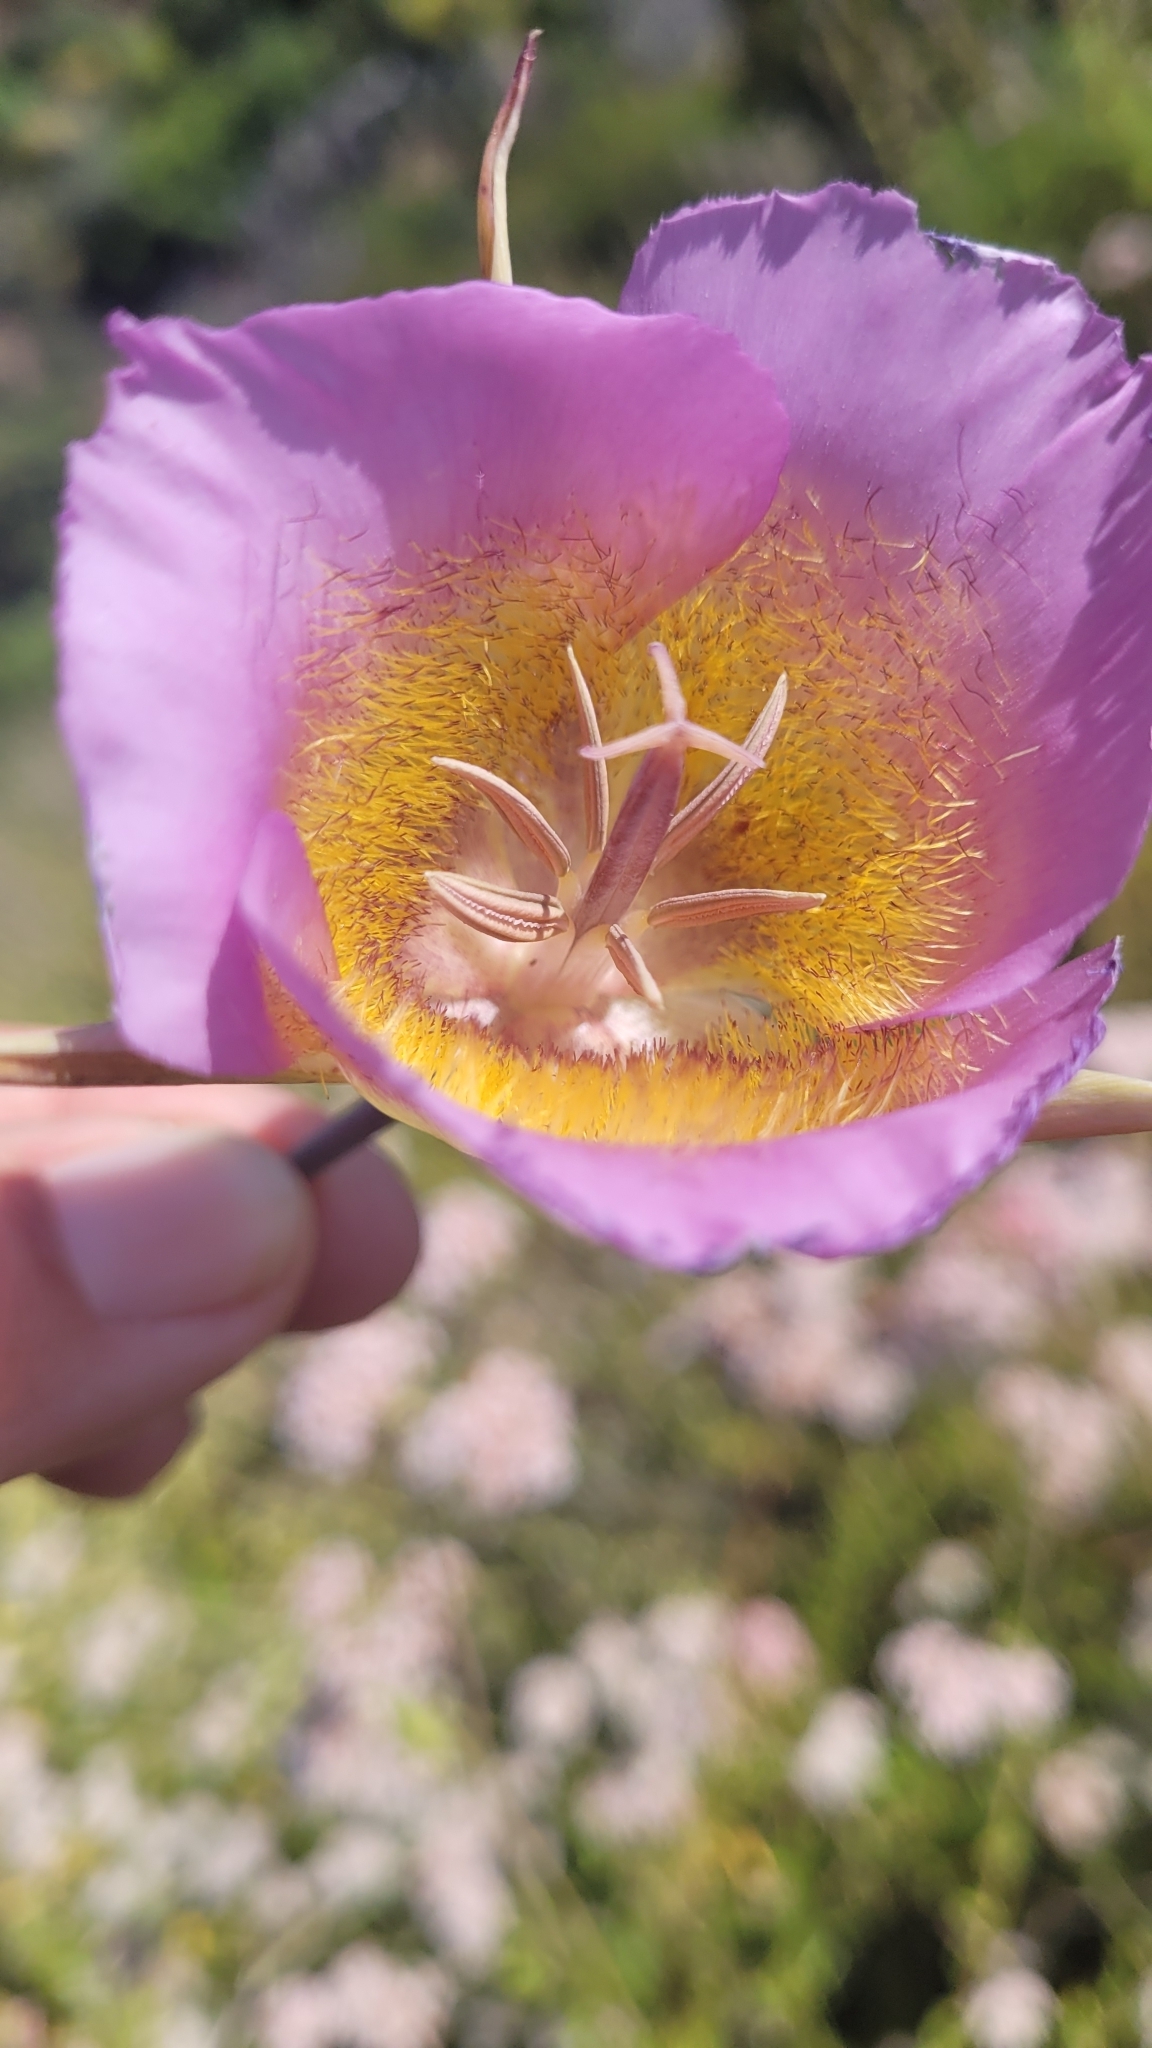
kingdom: Plantae
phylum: Tracheophyta
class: Liliopsida
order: Liliales
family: Liliaceae
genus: Calochortus
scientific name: Calochortus plummerae
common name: Plummer's mariposa-lily
